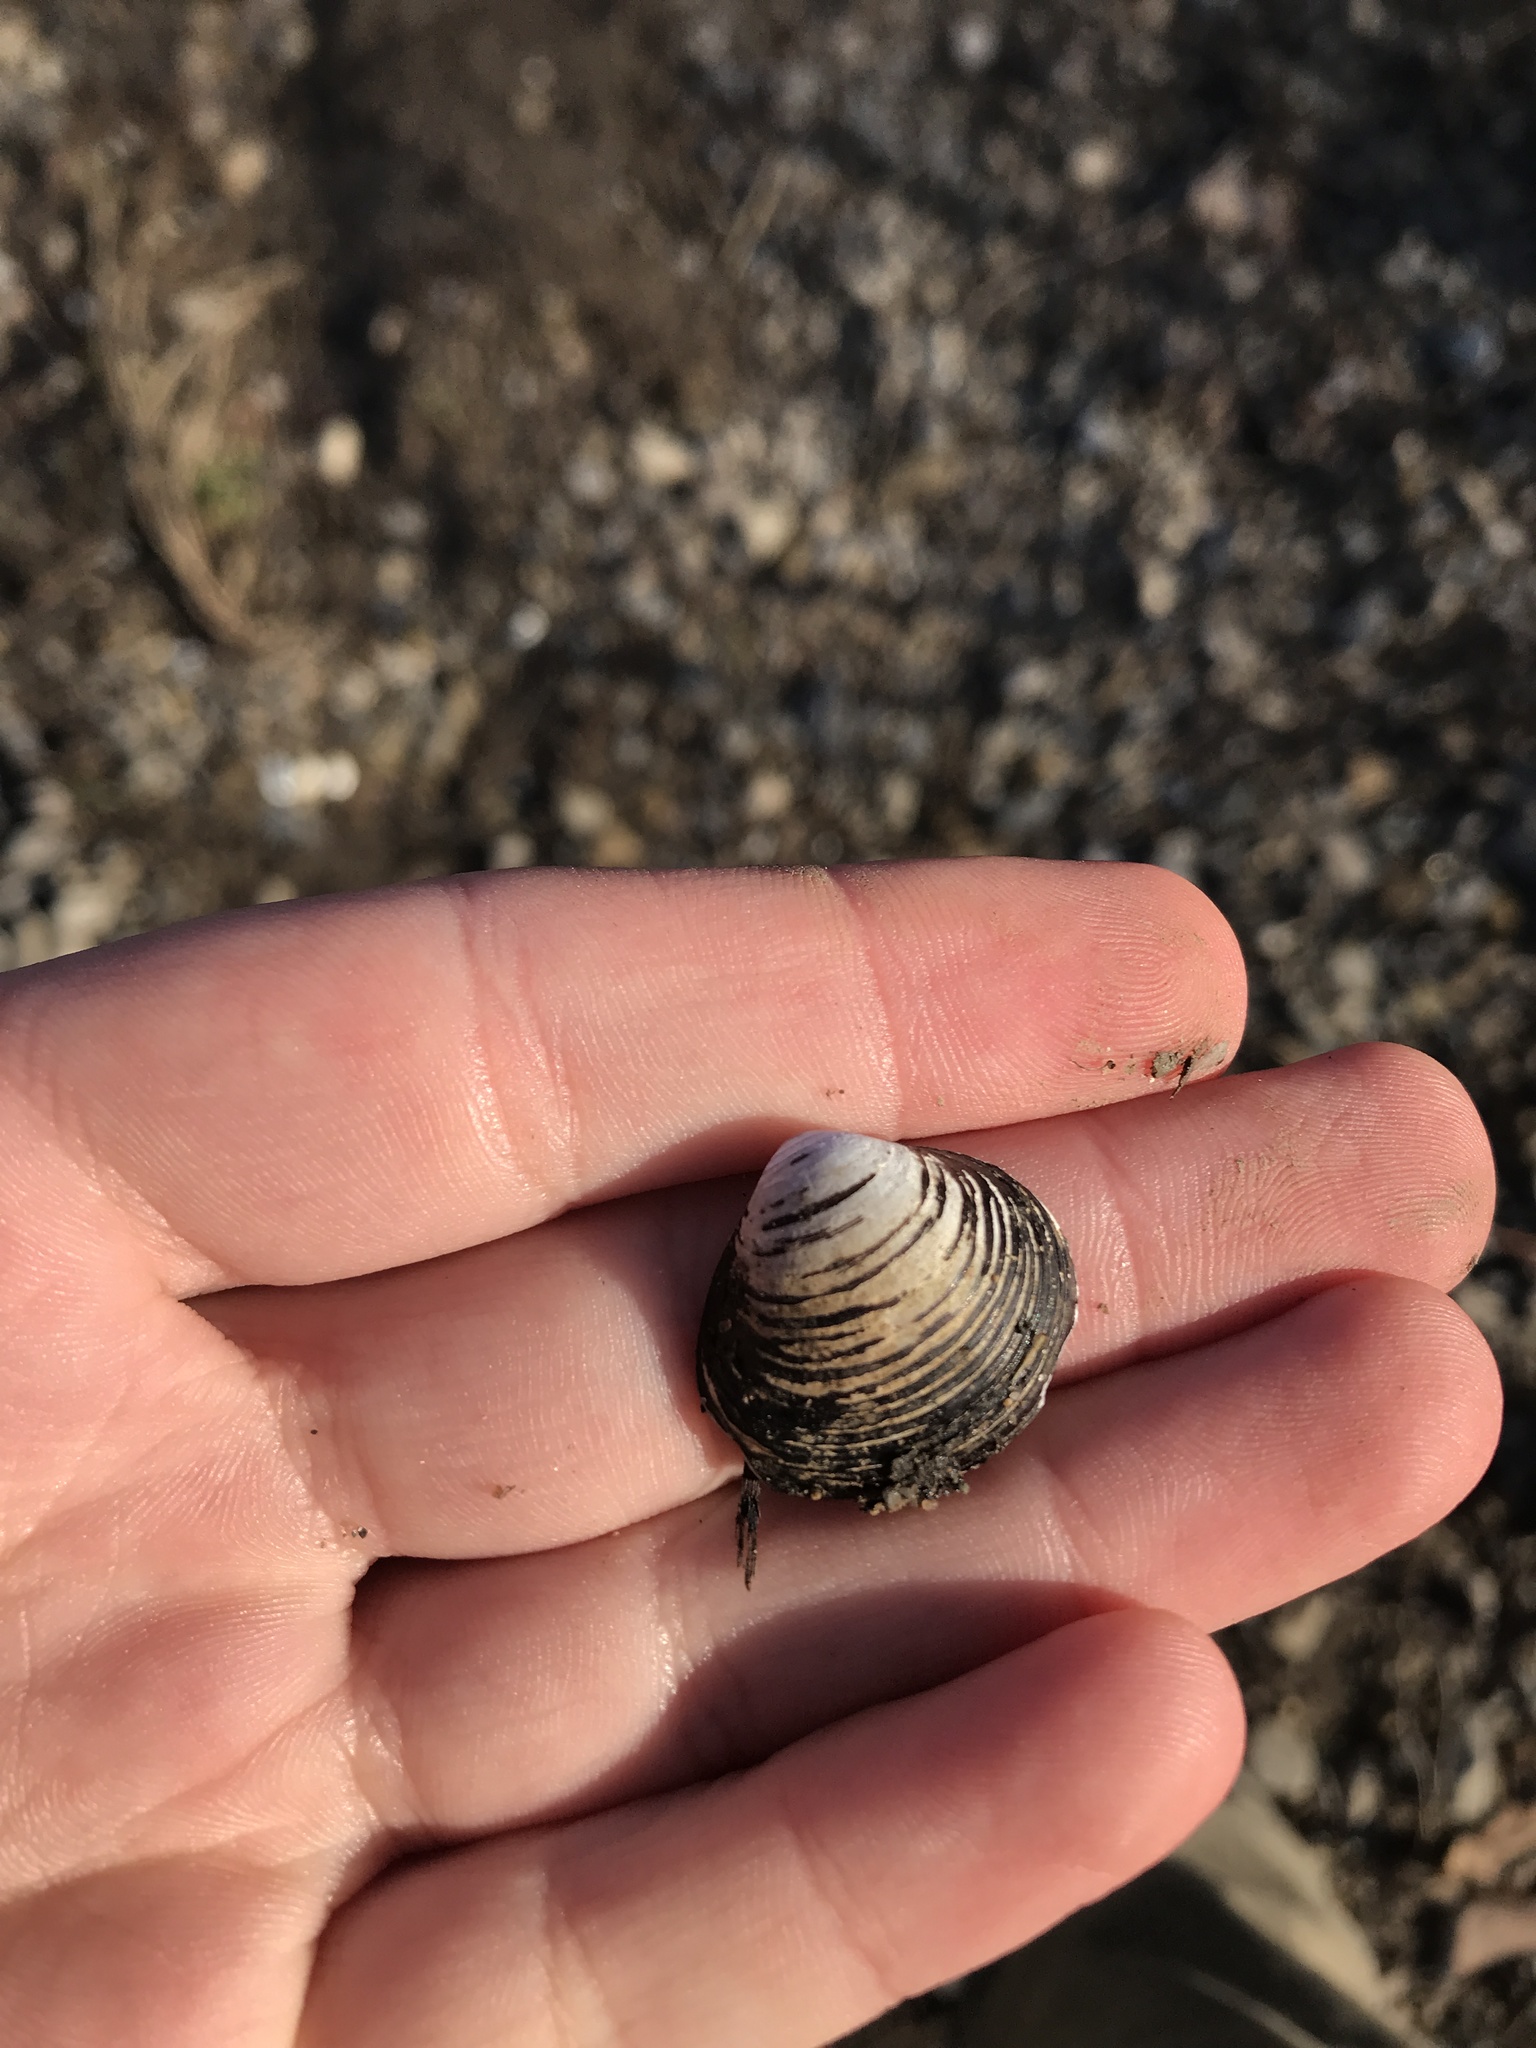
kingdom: Animalia
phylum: Mollusca
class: Bivalvia
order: Venerida
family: Cyrenidae
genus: Corbicula
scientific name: Corbicula fluminea
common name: Asian clam
